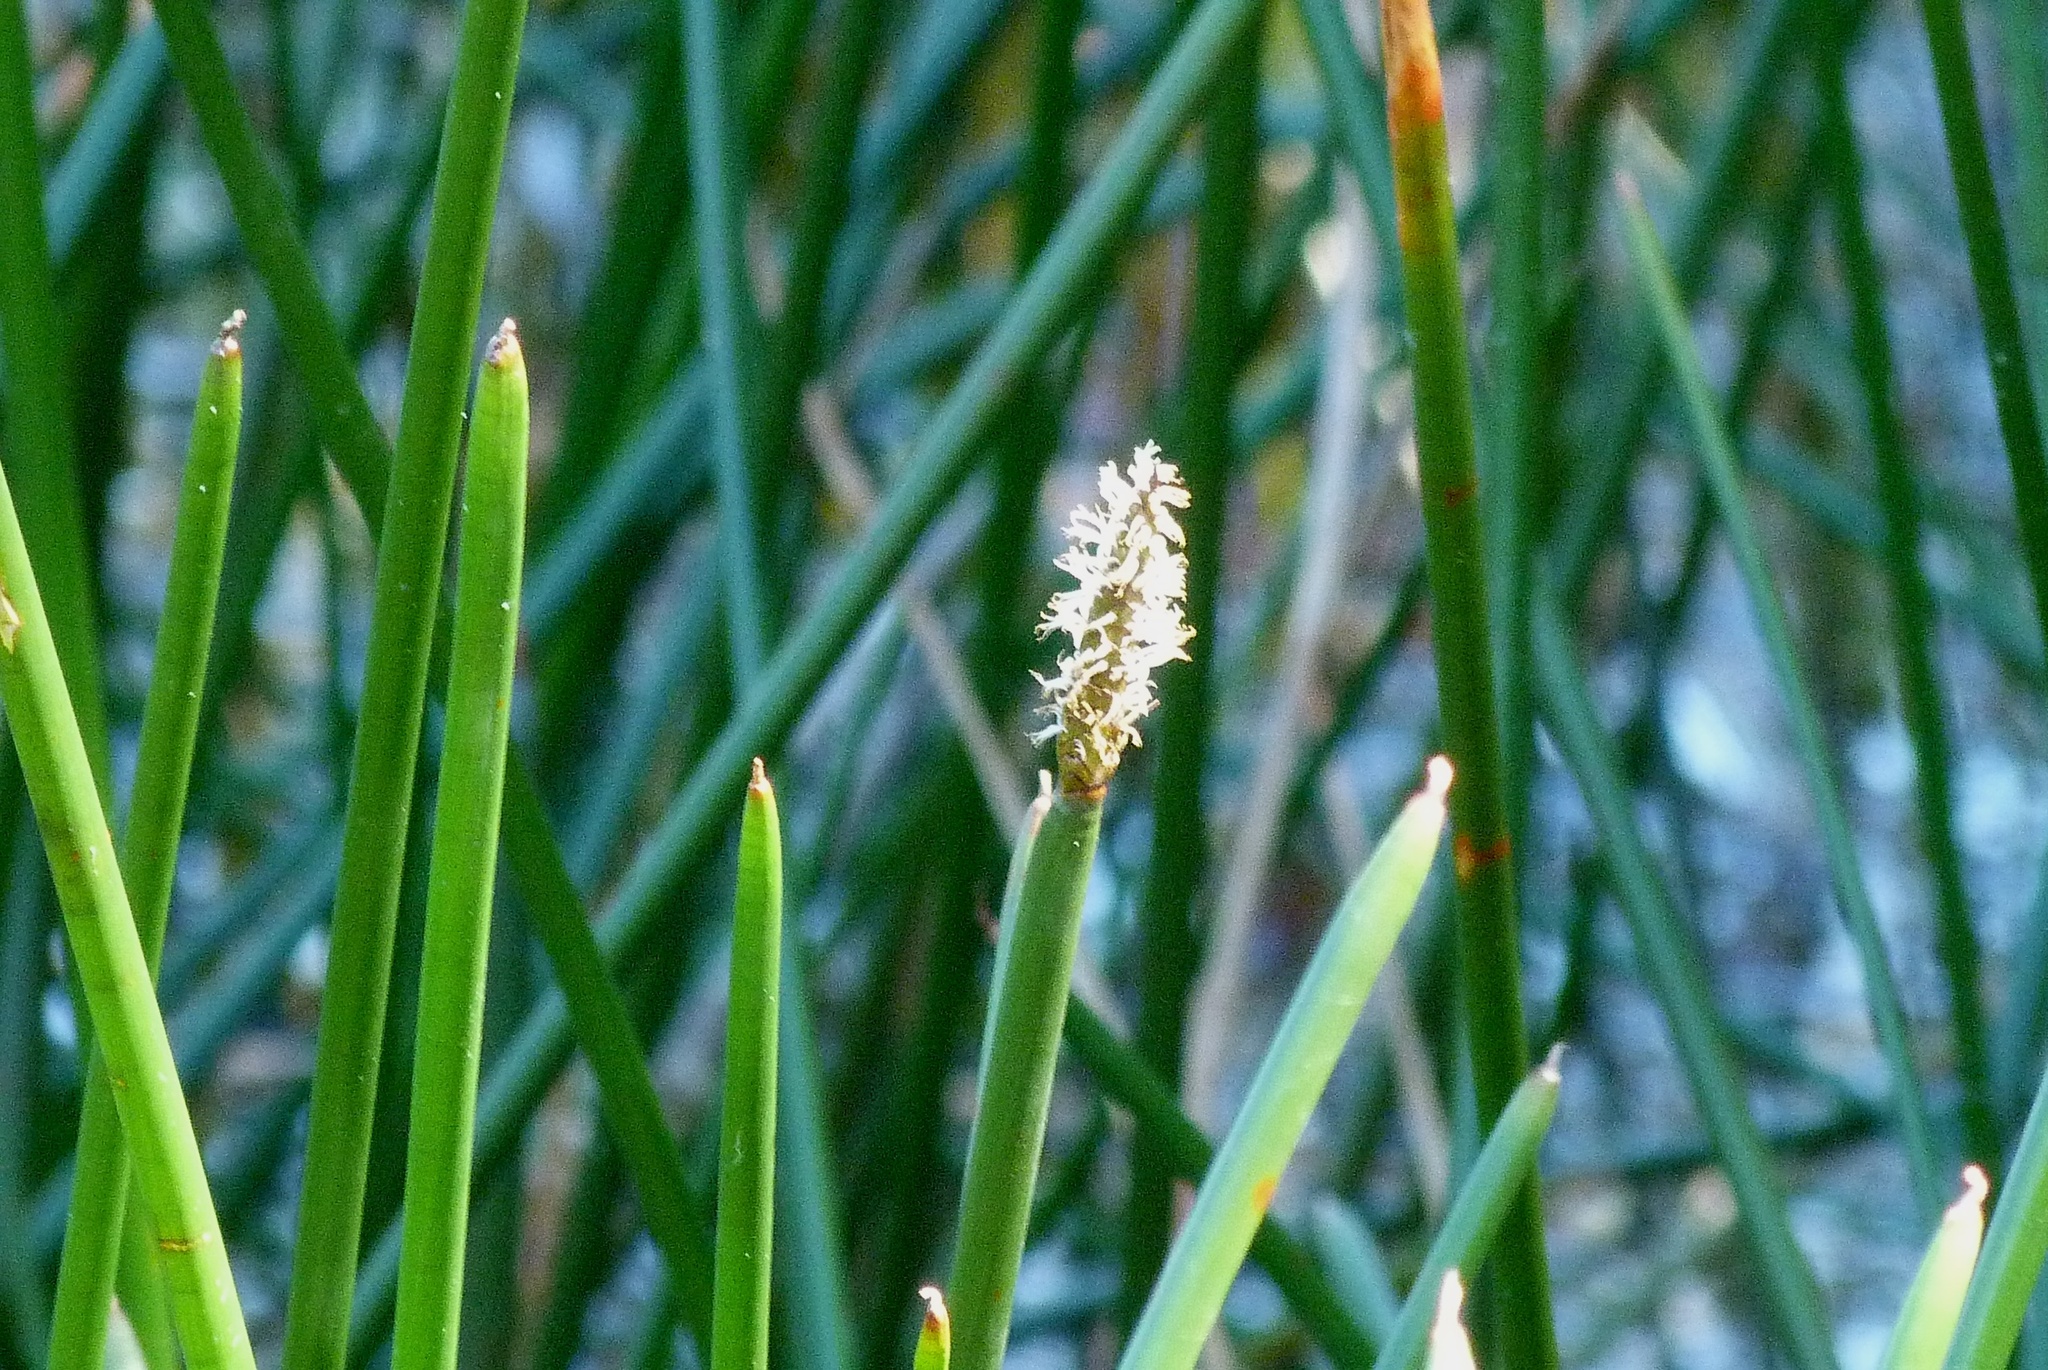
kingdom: Plantae
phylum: Tracheophyta
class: Liliopsida
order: Poales
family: Cyperaceae
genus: Eleocharis
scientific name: Eleocharis sphacelata
